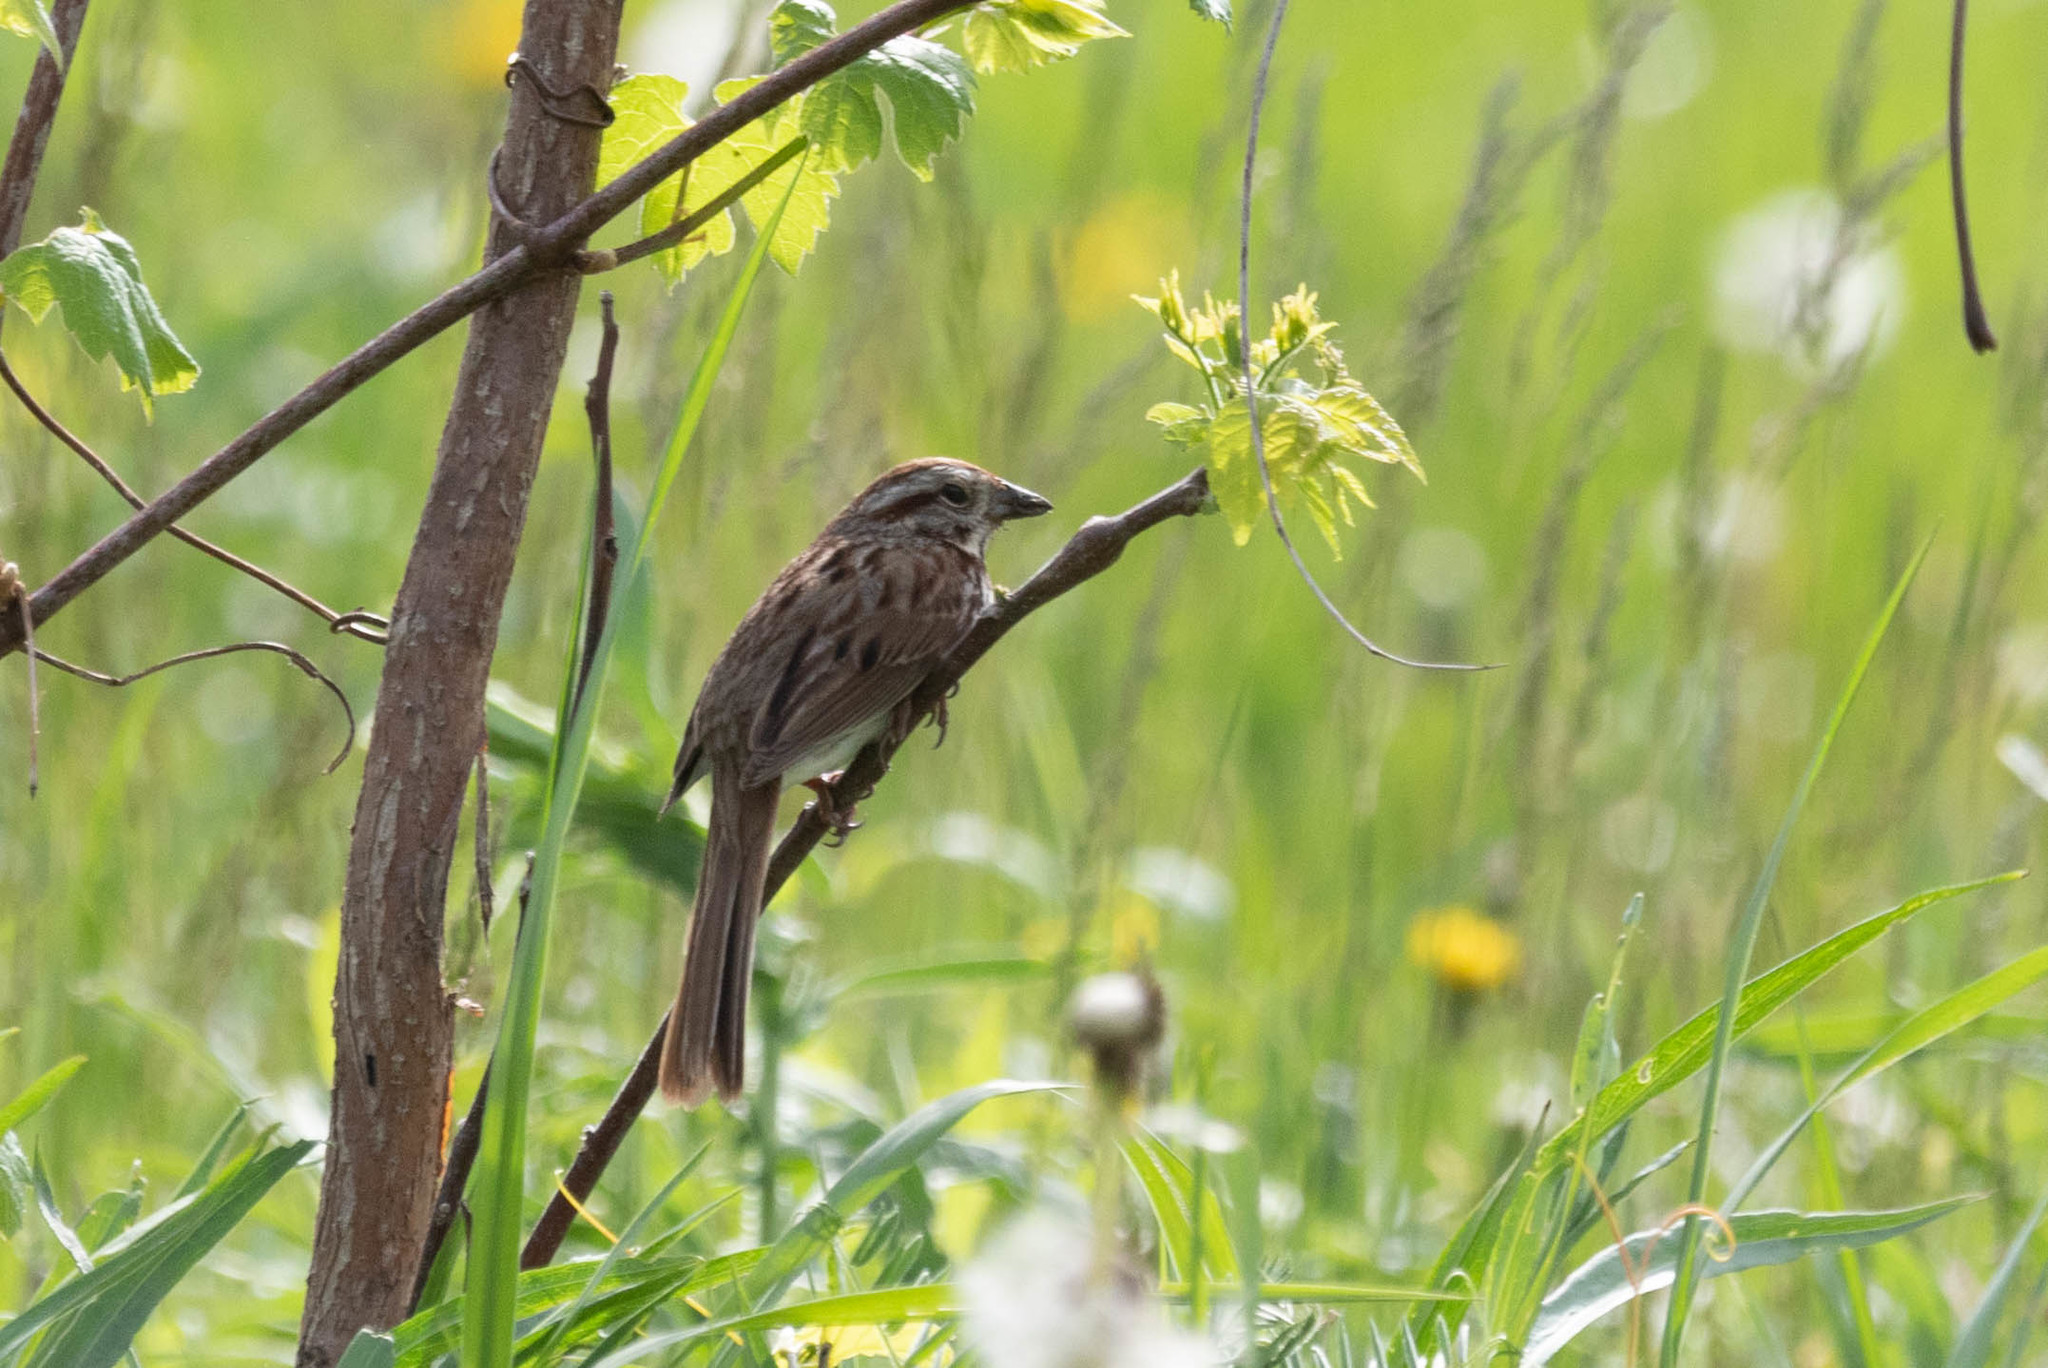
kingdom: Animalia
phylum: Chordata
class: Aves
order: Passeriformes
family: Passerellidae
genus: Melospiza
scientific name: Melospiza melodia
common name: Song sparrow
